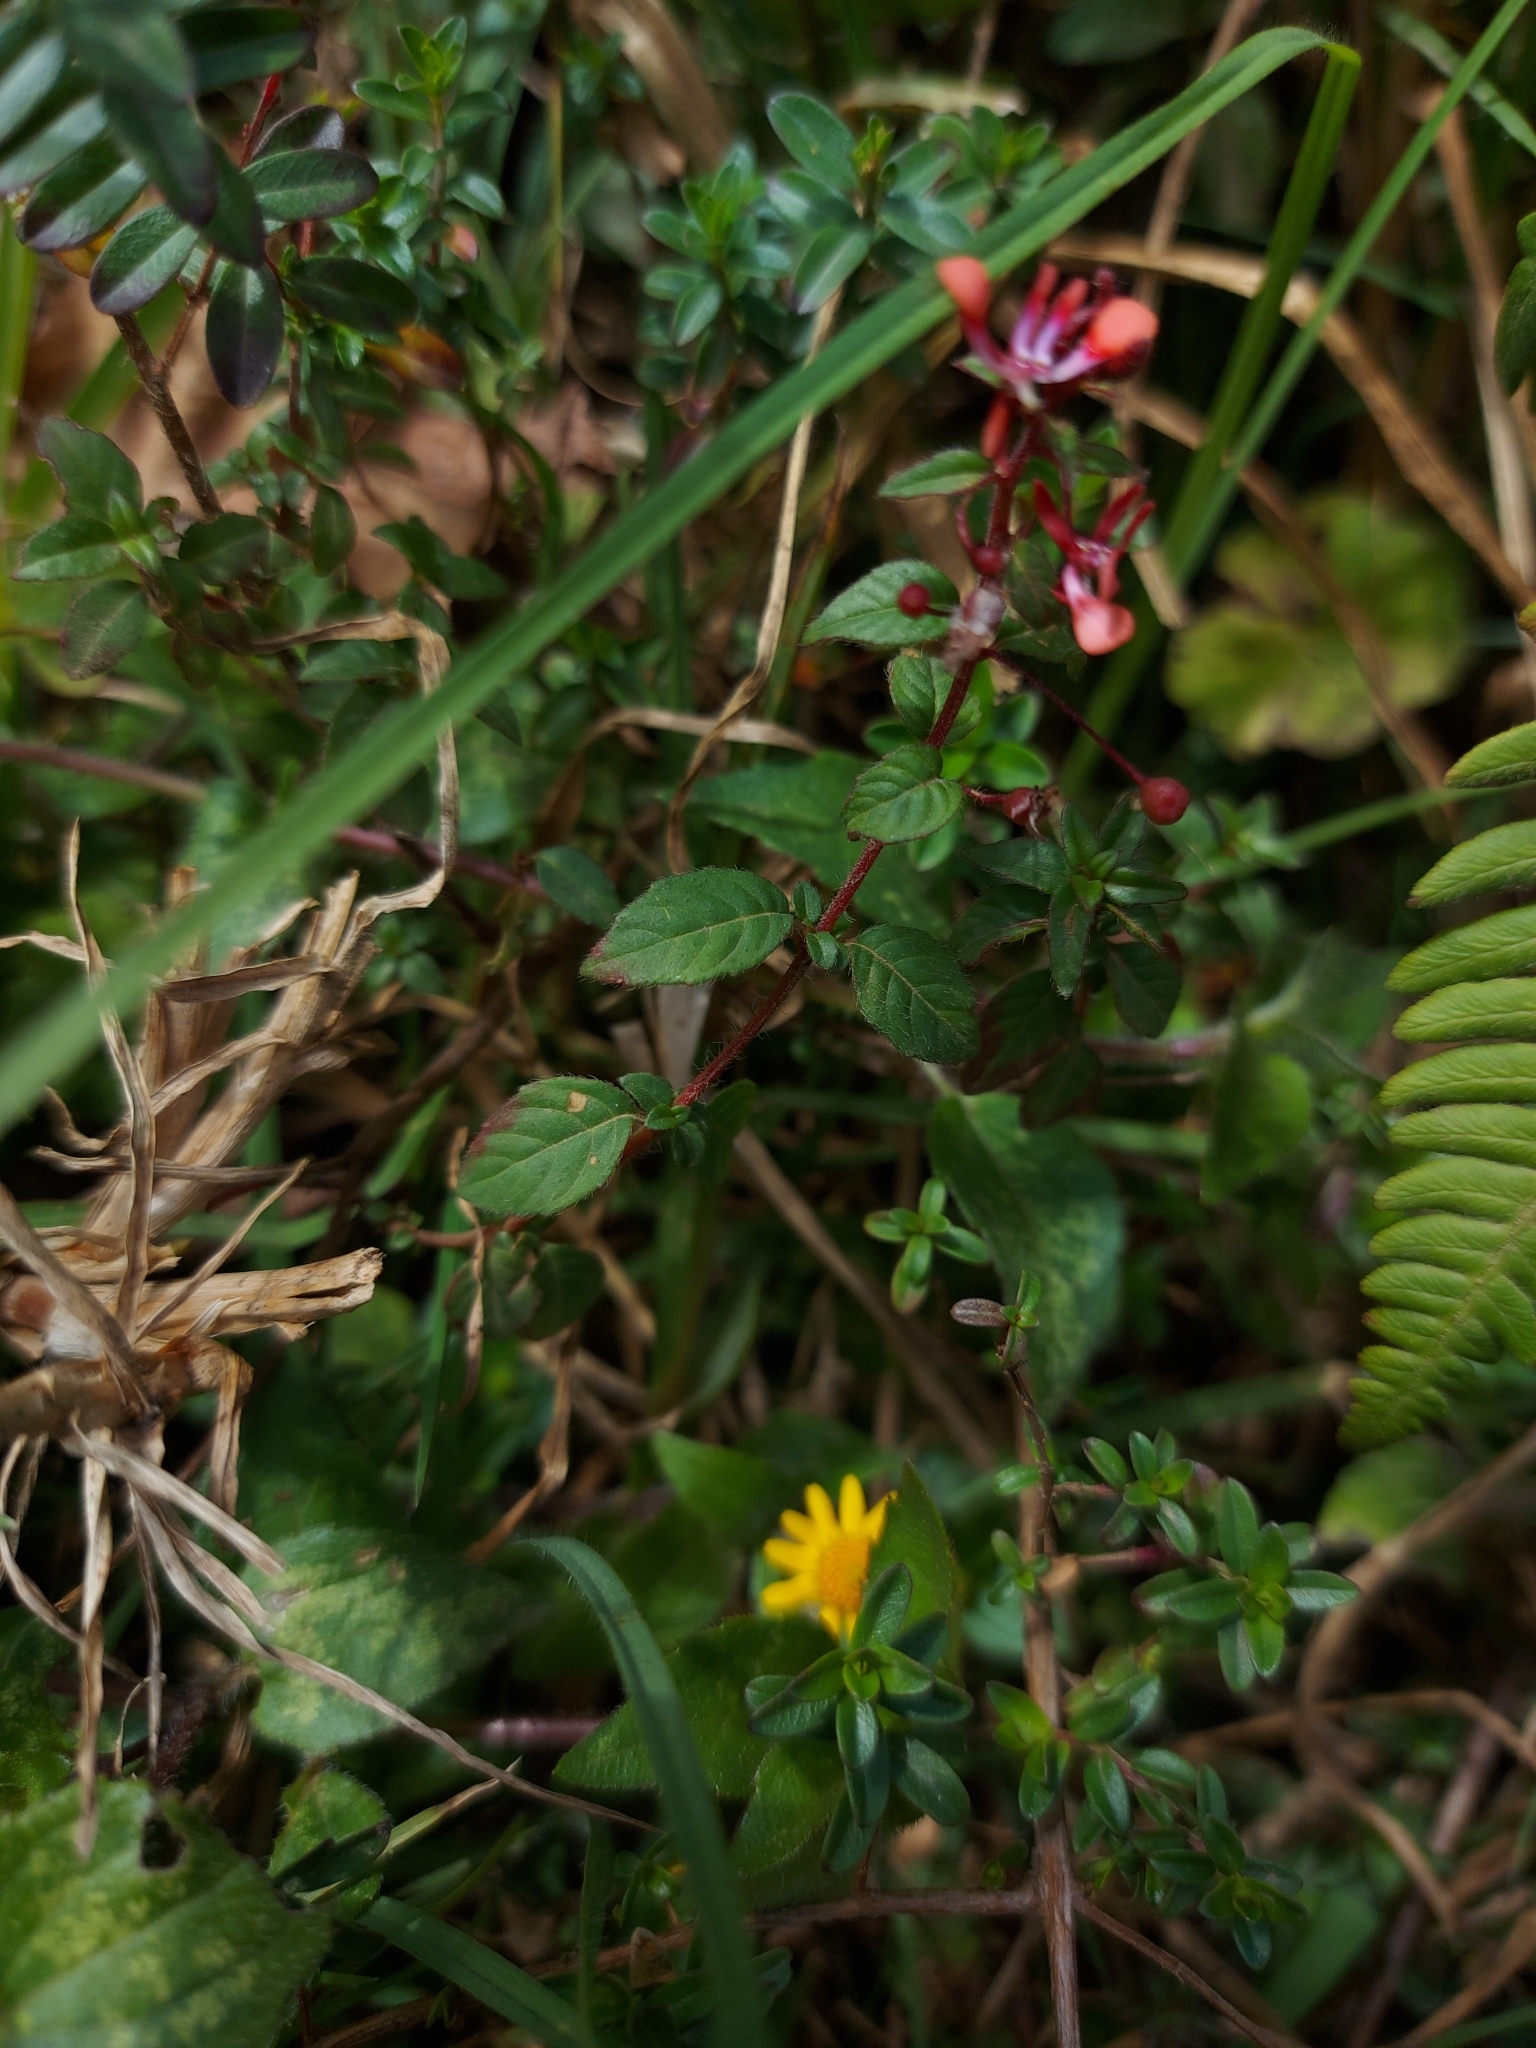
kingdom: Plantae
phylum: Tracheophyta
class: Magnoliopsida
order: Myrtales
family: Onagraceae
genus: Lopezia
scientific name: Lopezia racemosa
